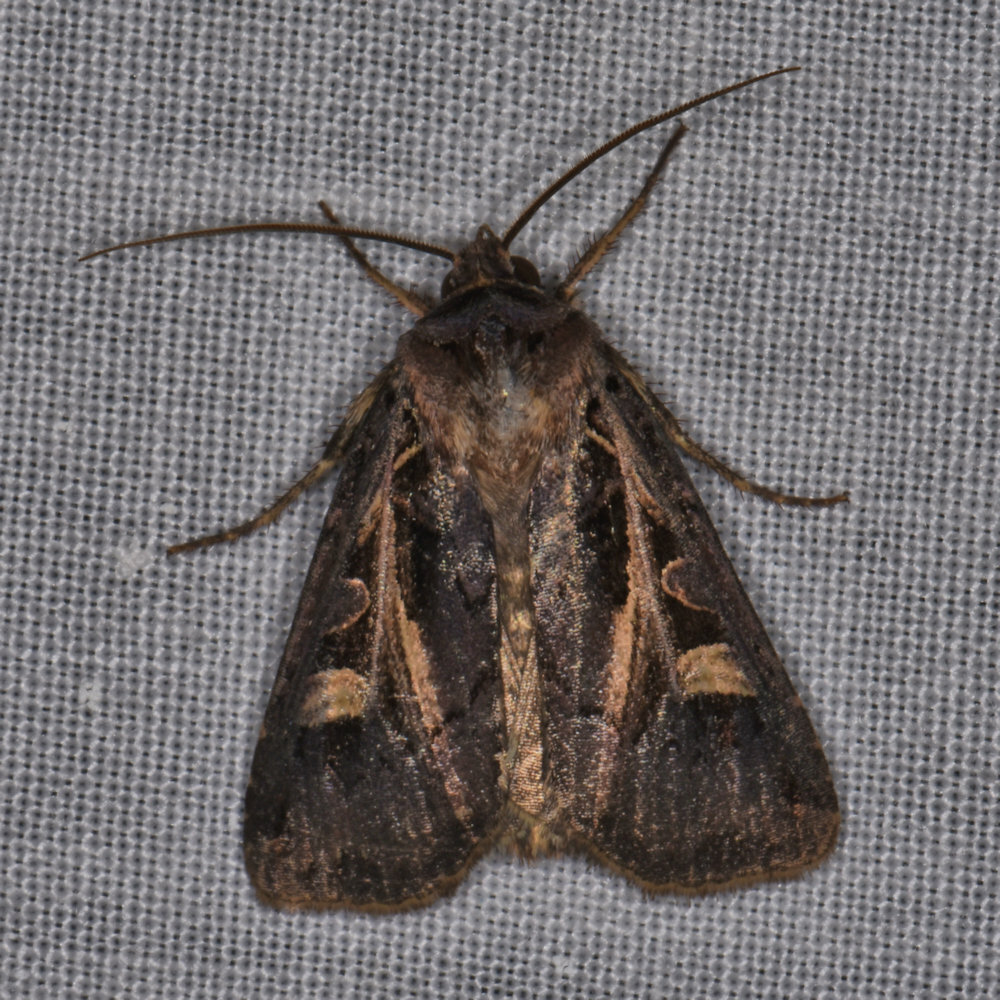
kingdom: Animalia
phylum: Arthropoda
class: Insecta
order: Lepidoptera
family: Noctuidae
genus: Feltia
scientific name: Feltia herilis
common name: Master's dart
